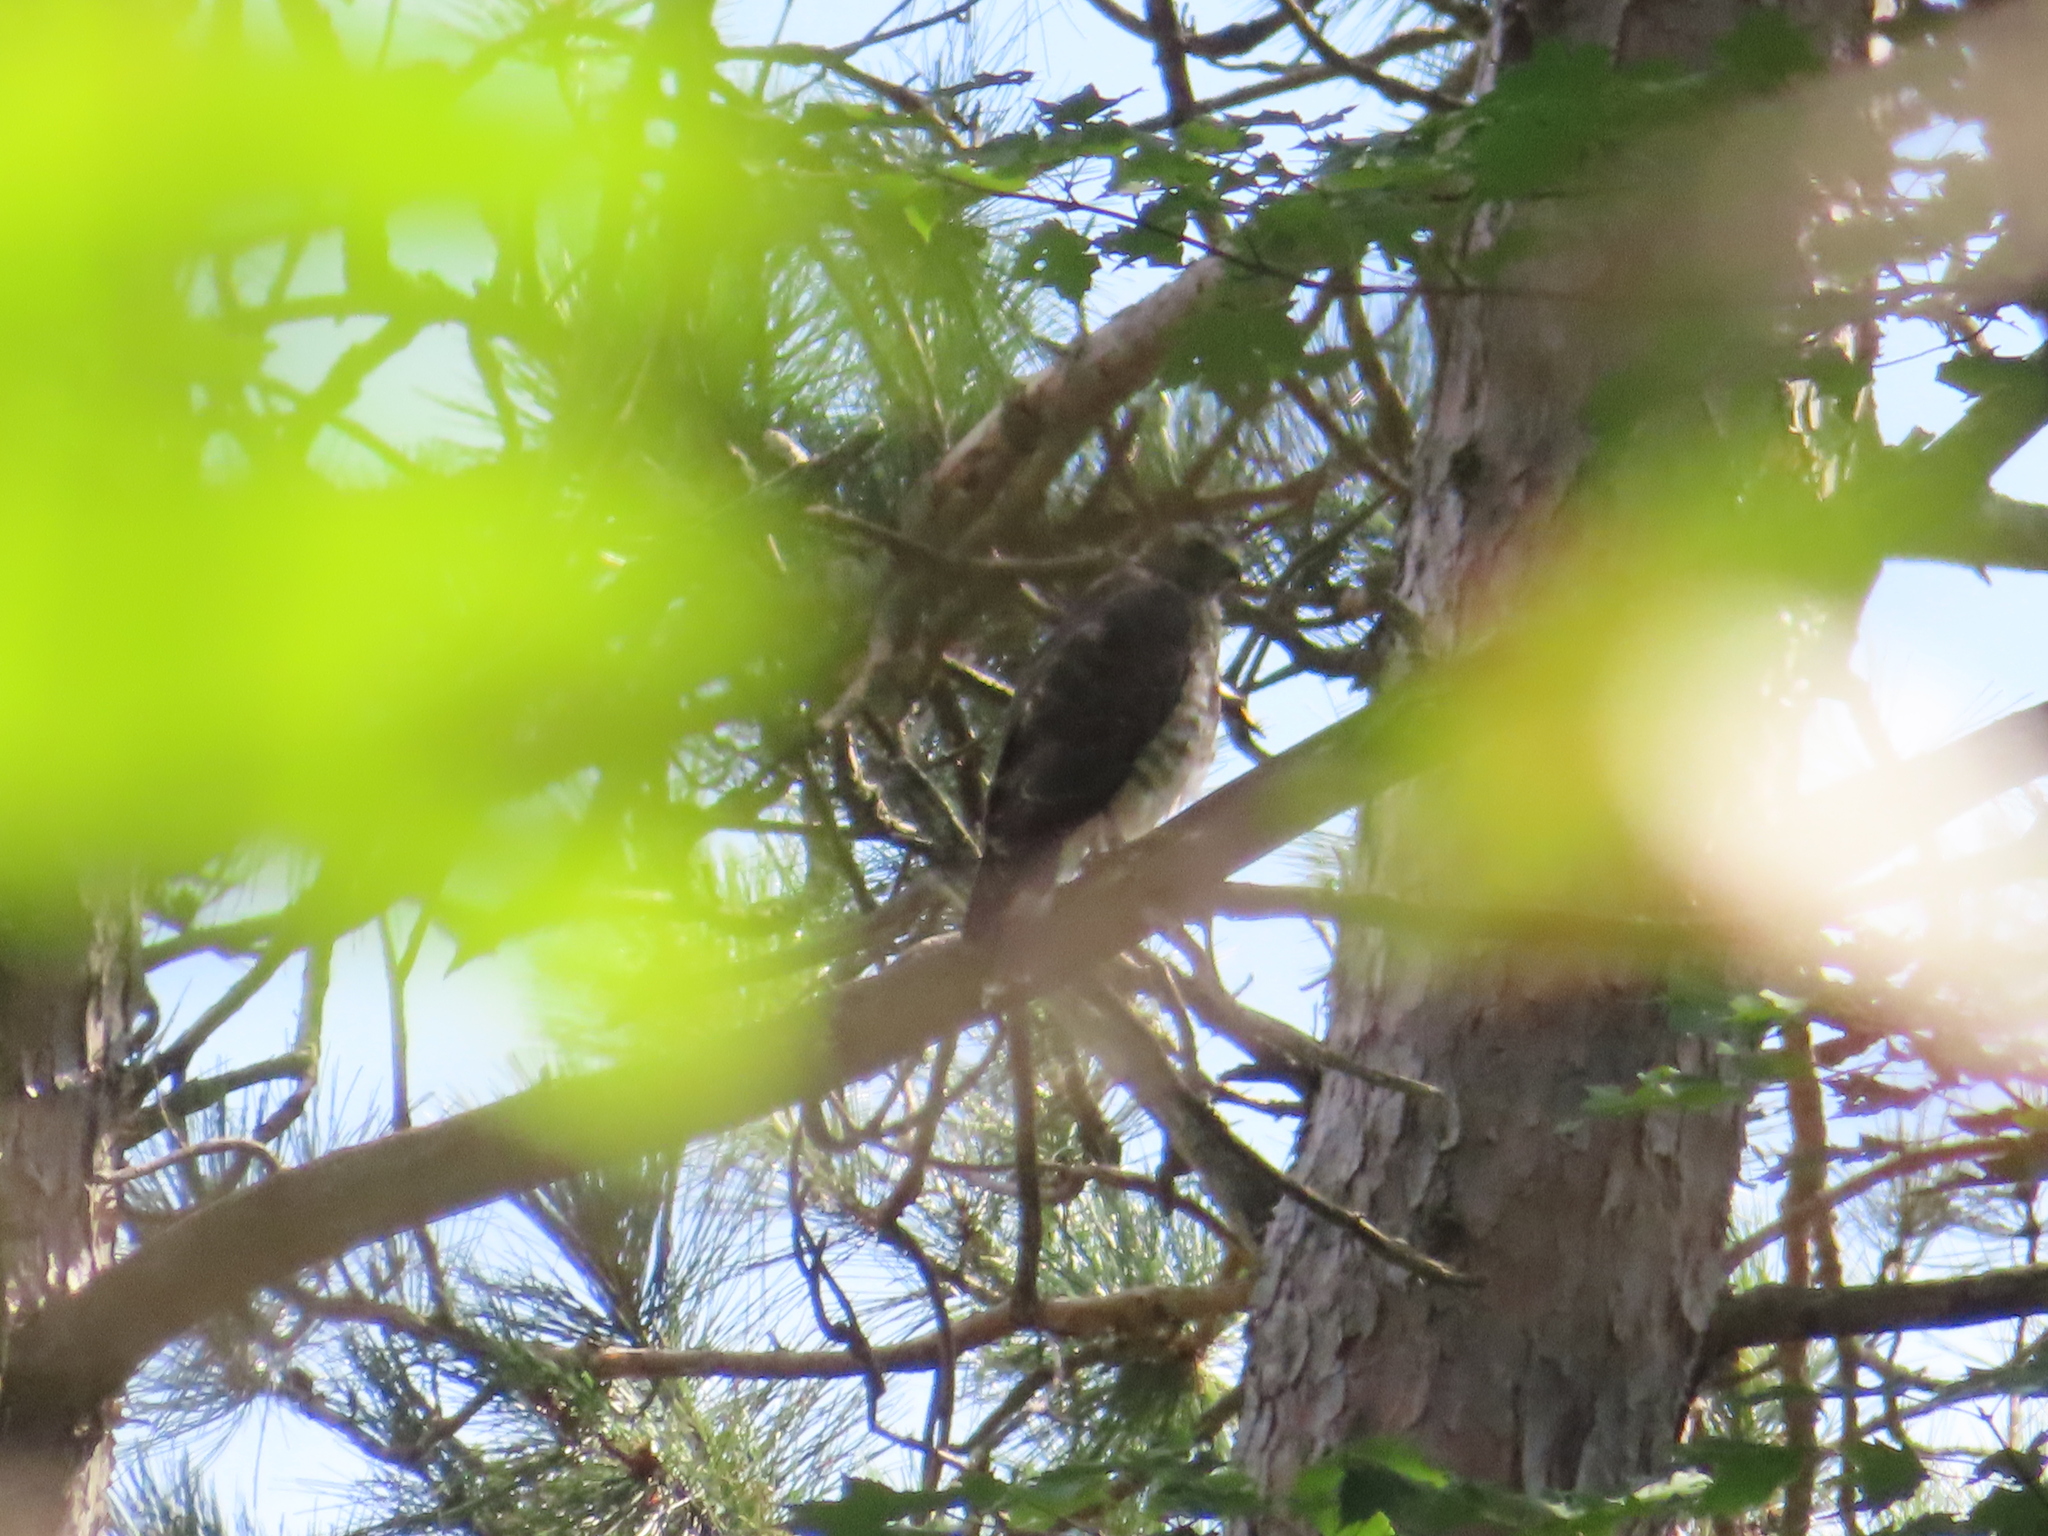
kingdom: Animalia
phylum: Chordata
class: Aves
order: Accipitriformes
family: Accipitridae
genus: Buteo
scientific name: Buteo platypterus
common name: Broad-winged hawk
